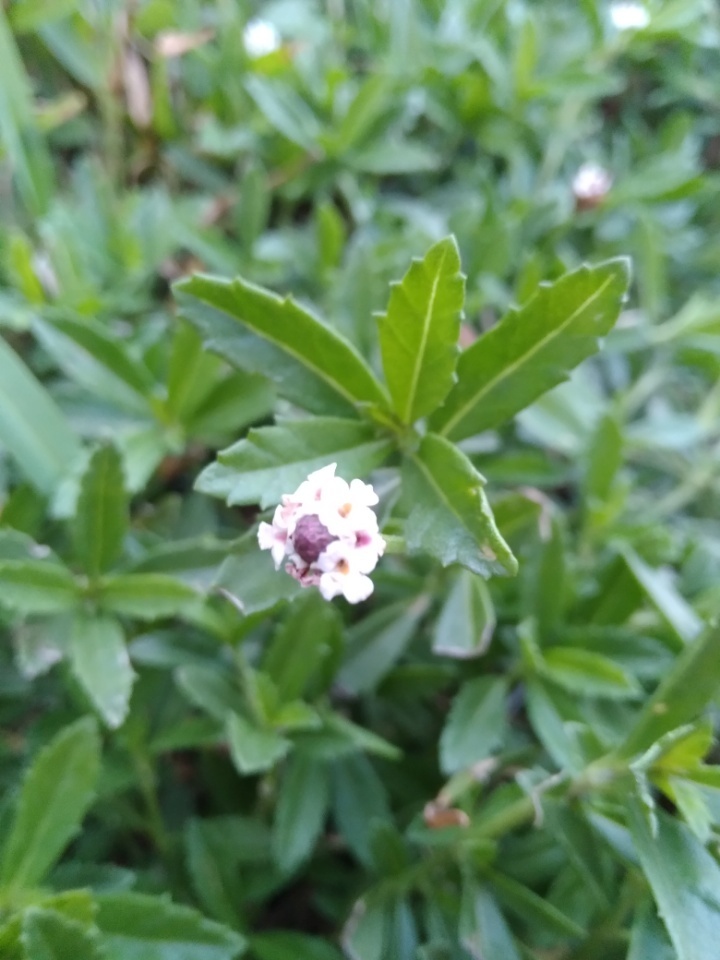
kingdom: Plantae
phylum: Tracheophyta
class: Magnoliopsida
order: Lamiales
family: Verbenaceae
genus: Phyla
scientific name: Phyla nodiflora
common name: Frogfruit
